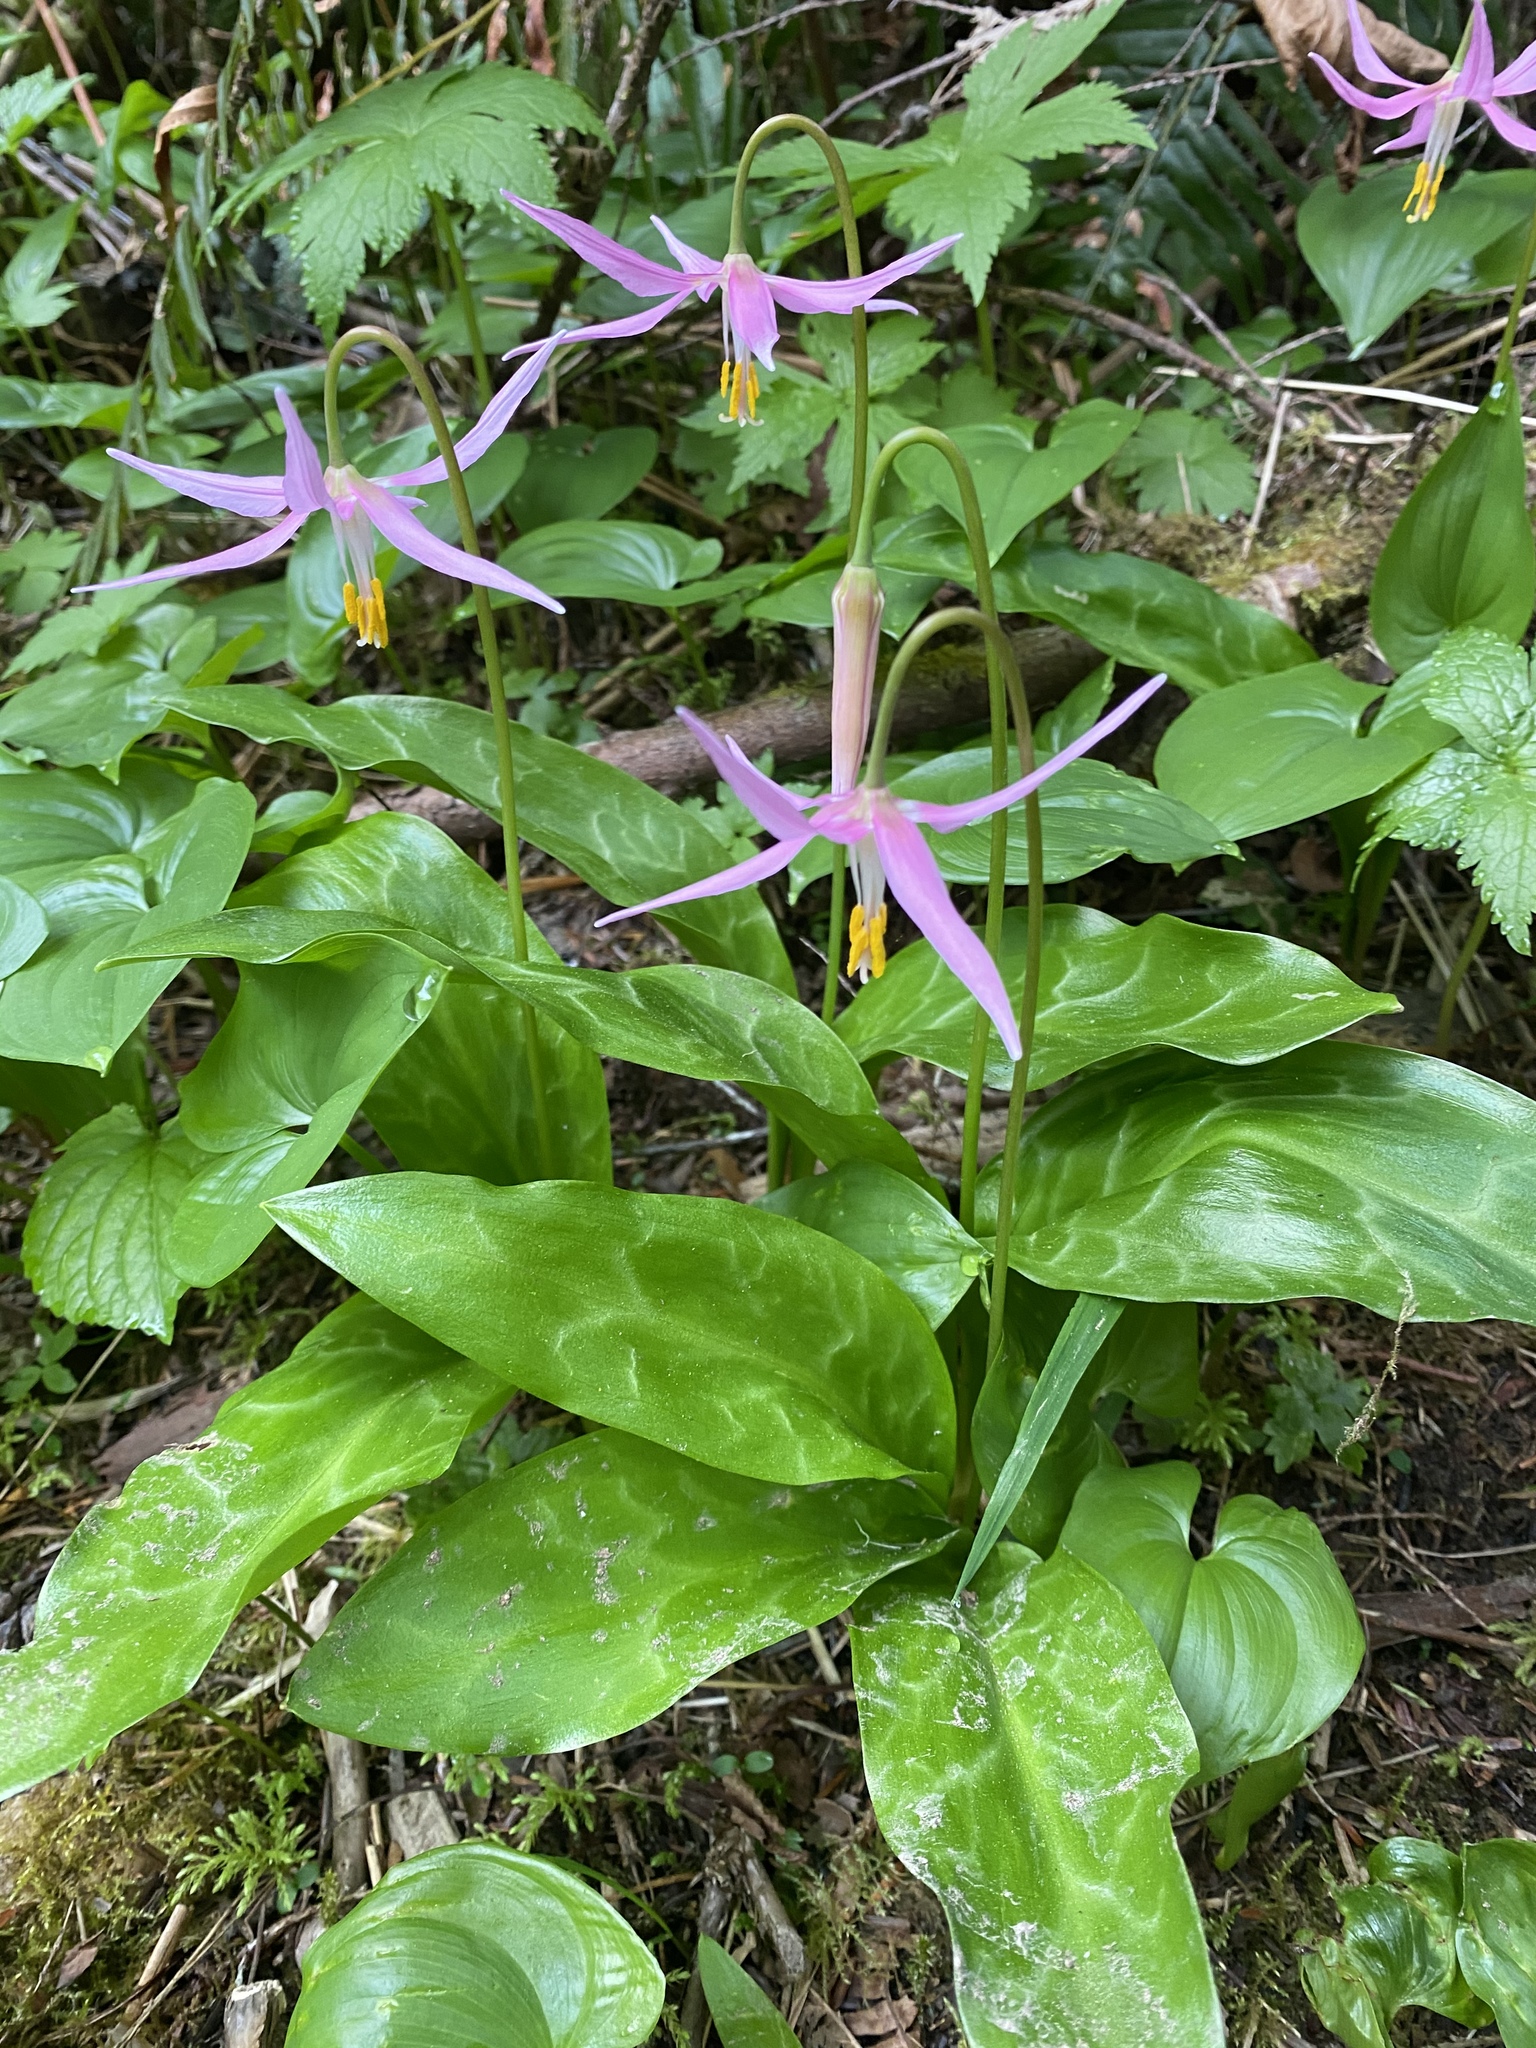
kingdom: Plantae
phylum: Tracheophyta
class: Liliopsida
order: Liliales
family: Liliaceae
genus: Erythronium
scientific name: Erythronium revolutum
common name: Pink fawn-lily
